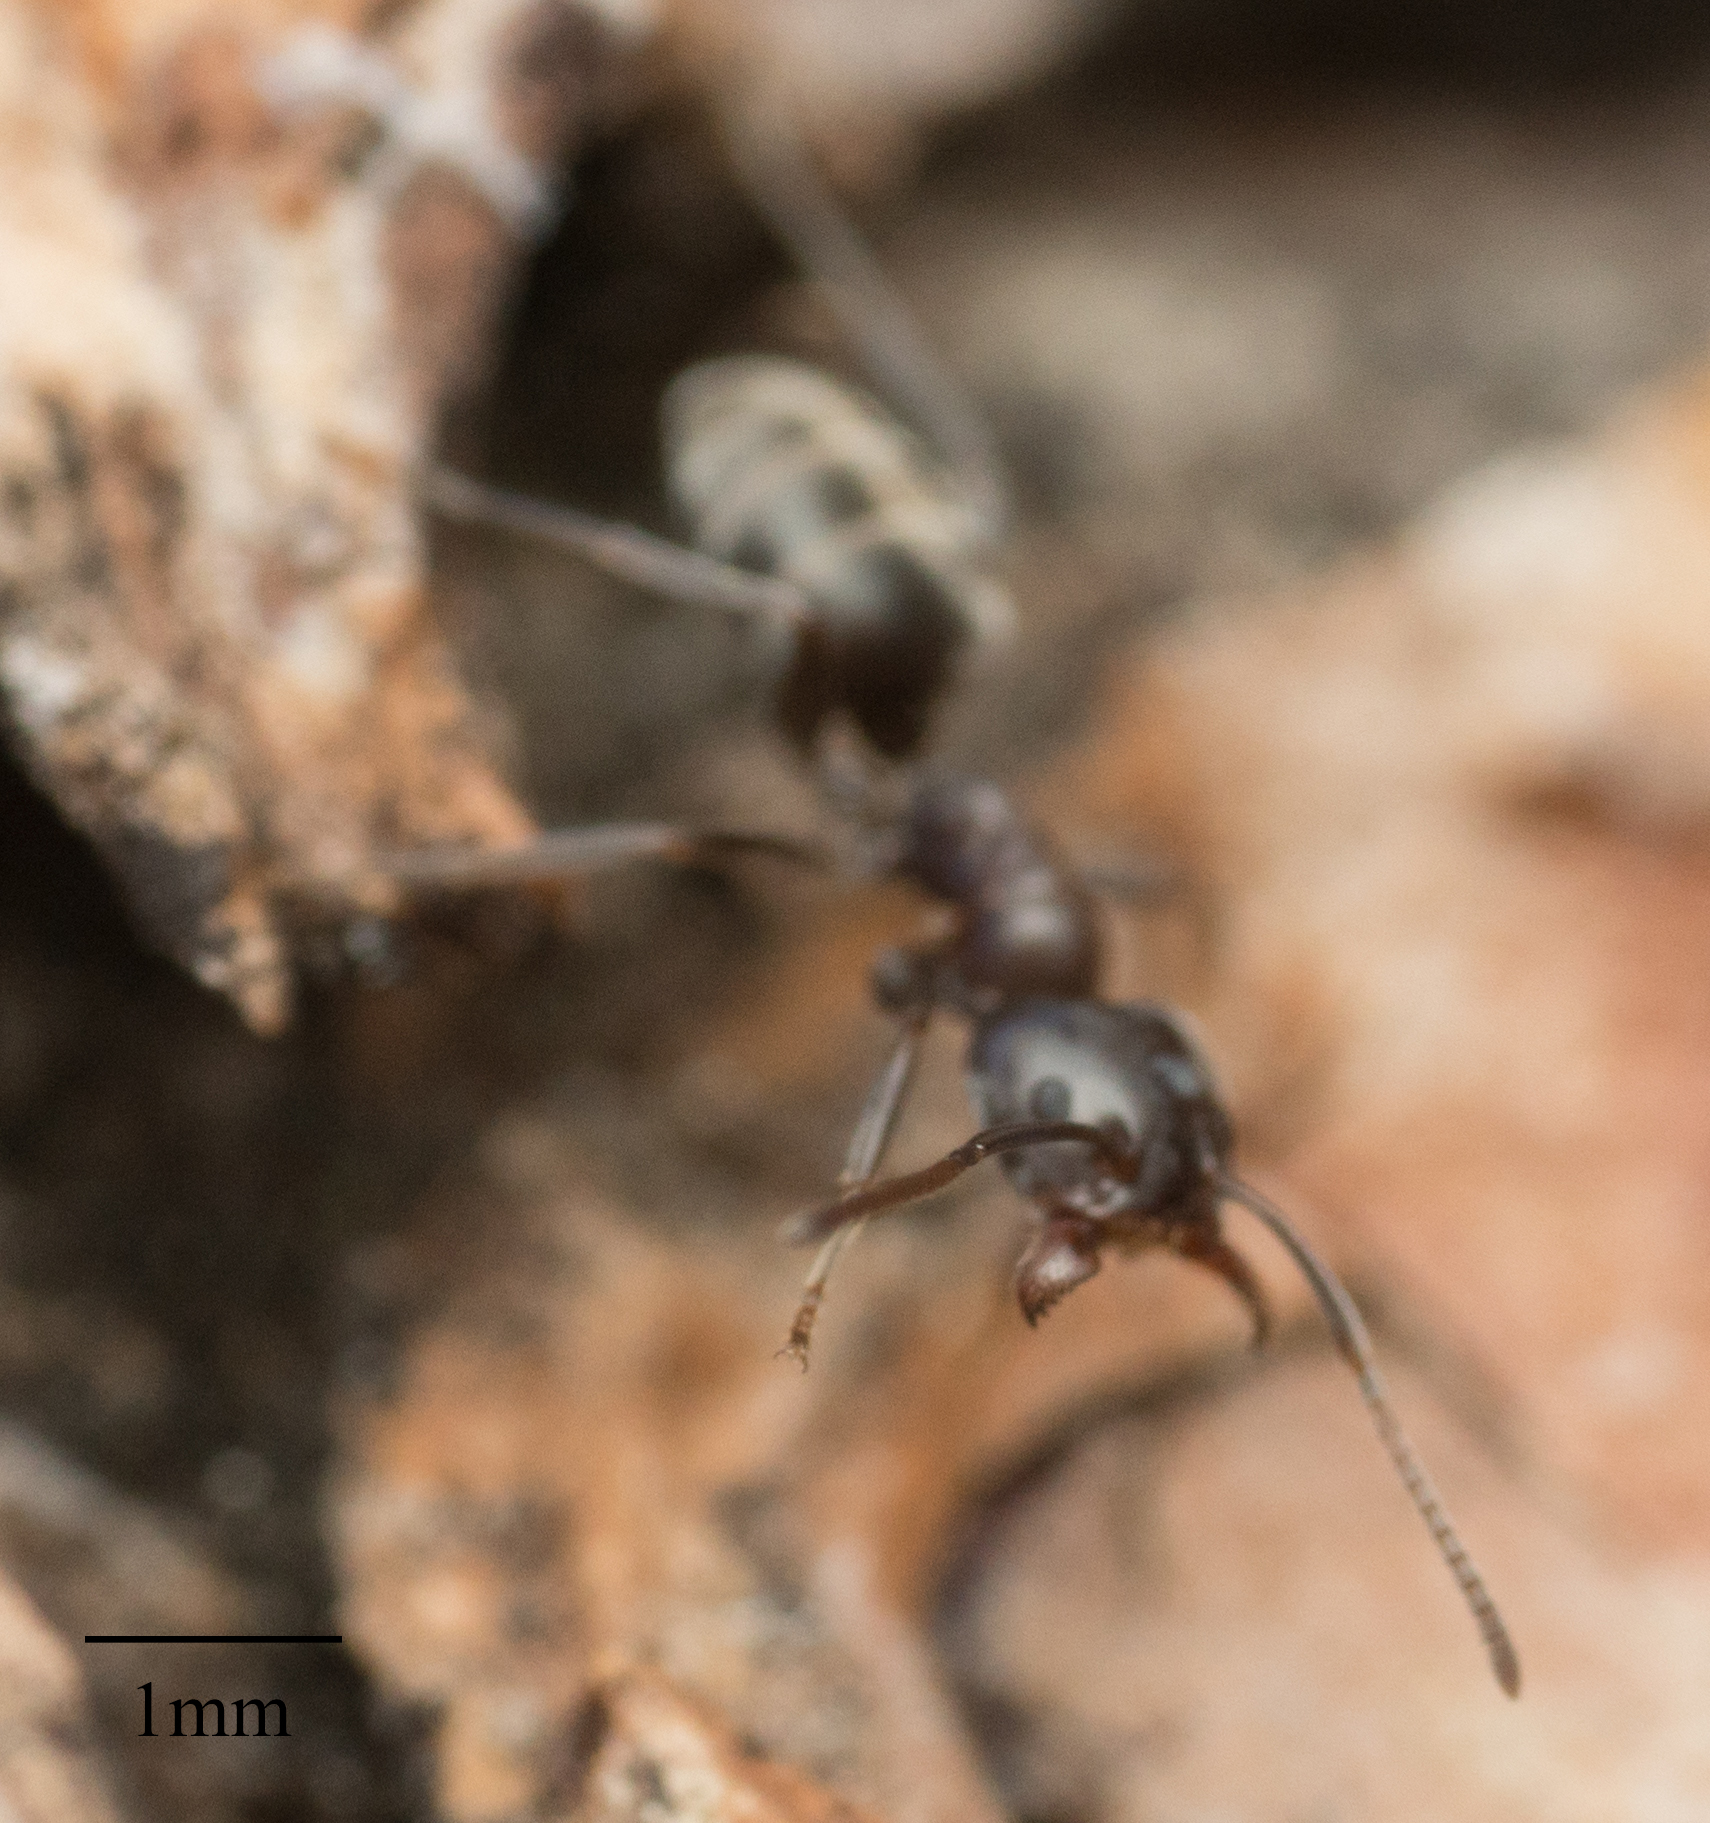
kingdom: Animalia
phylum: Arthropoda
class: Insecta
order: Hymenoptera
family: Formicidae
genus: Linepithema
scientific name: Linepithema humile
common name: Argentine ant
